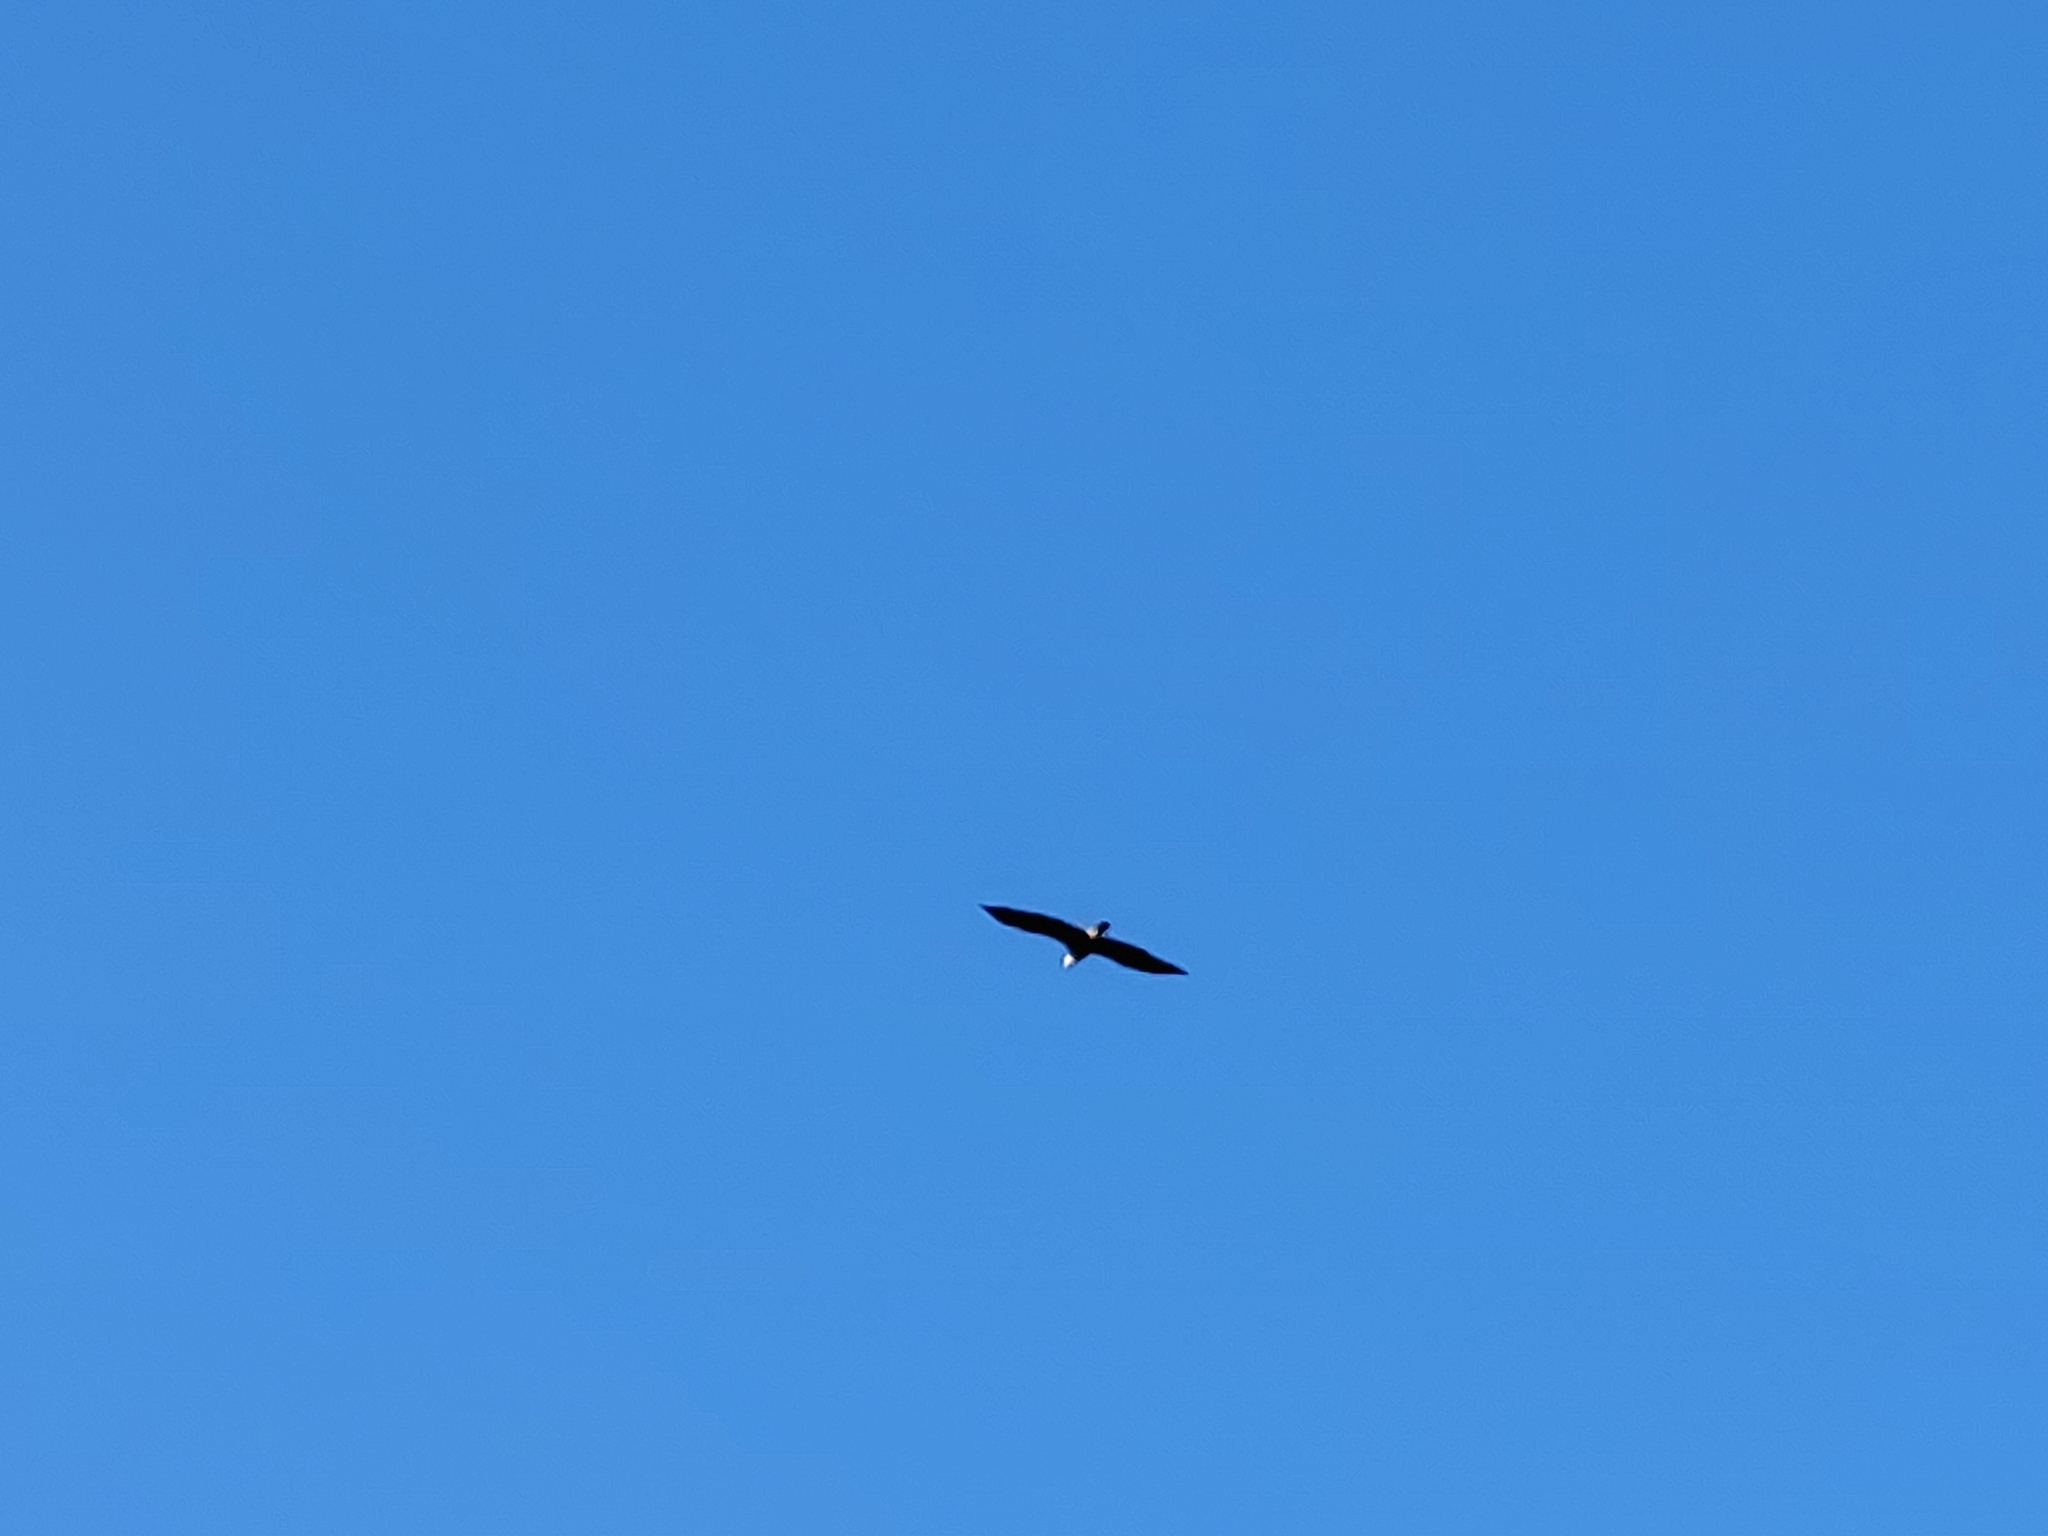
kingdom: Animalia
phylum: Chordata
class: Aves
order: Accipitriformes
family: Accipitridae
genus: Haliaeetus
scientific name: Haliaeetus leucocephalus
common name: Bald eagle
